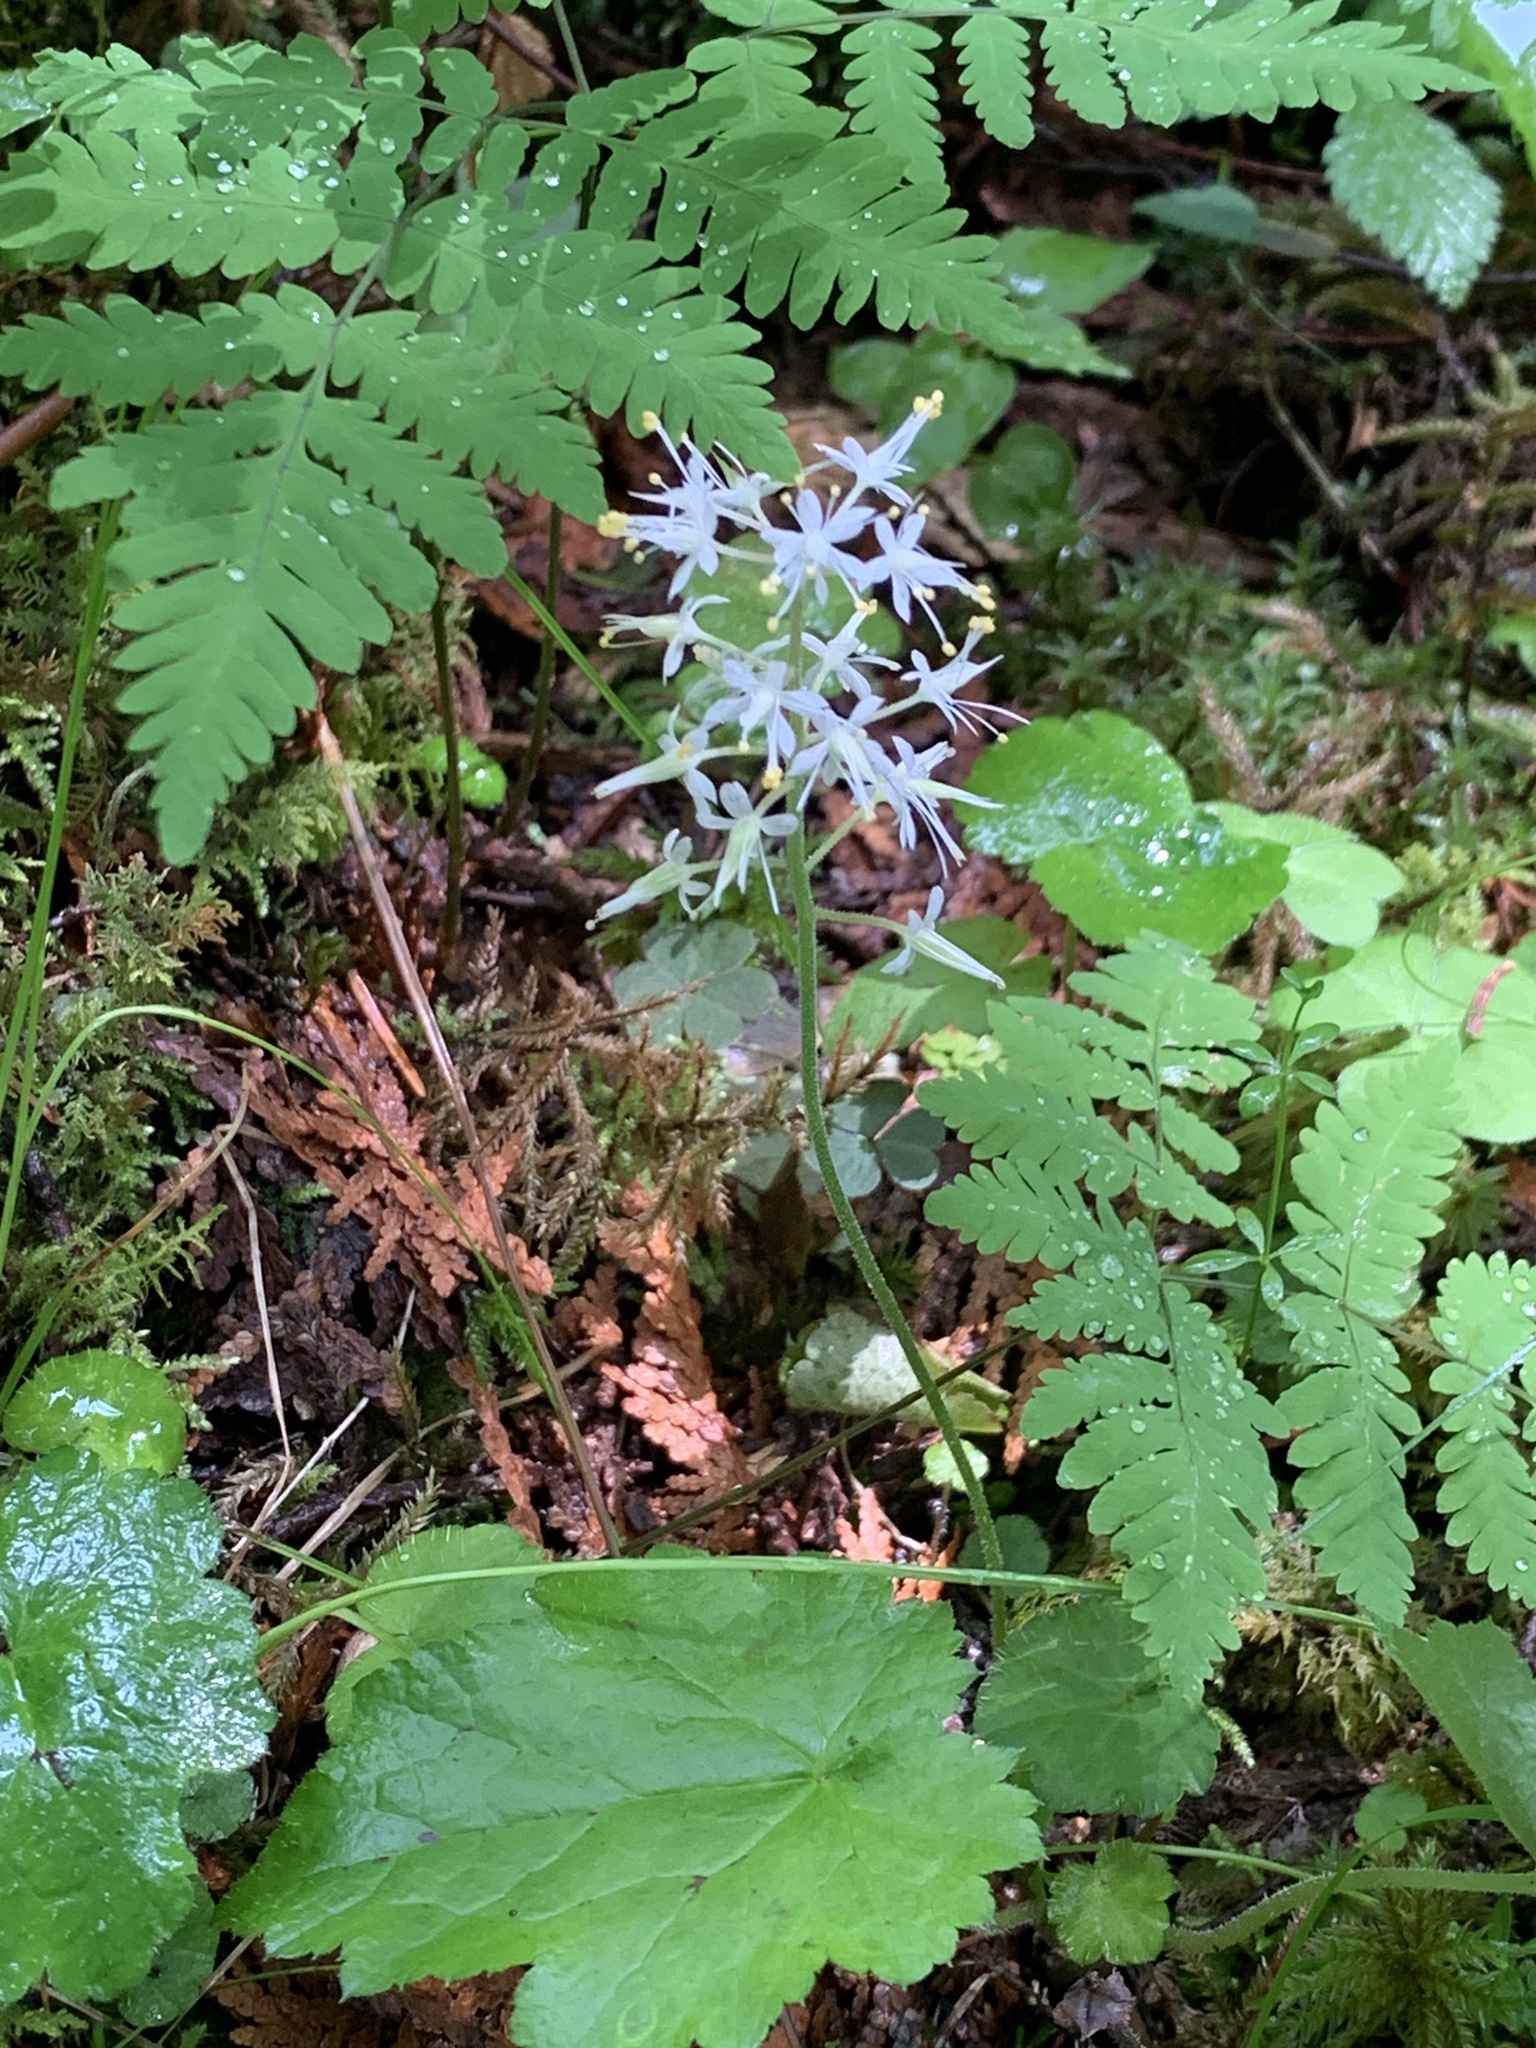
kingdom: Plantae
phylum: Tracheophyta
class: Magnoliopsida
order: Saxifragales
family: Saxifragaceae
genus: Tiarella
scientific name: Tiarella stolonifera
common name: Stoloniferous foamflower
